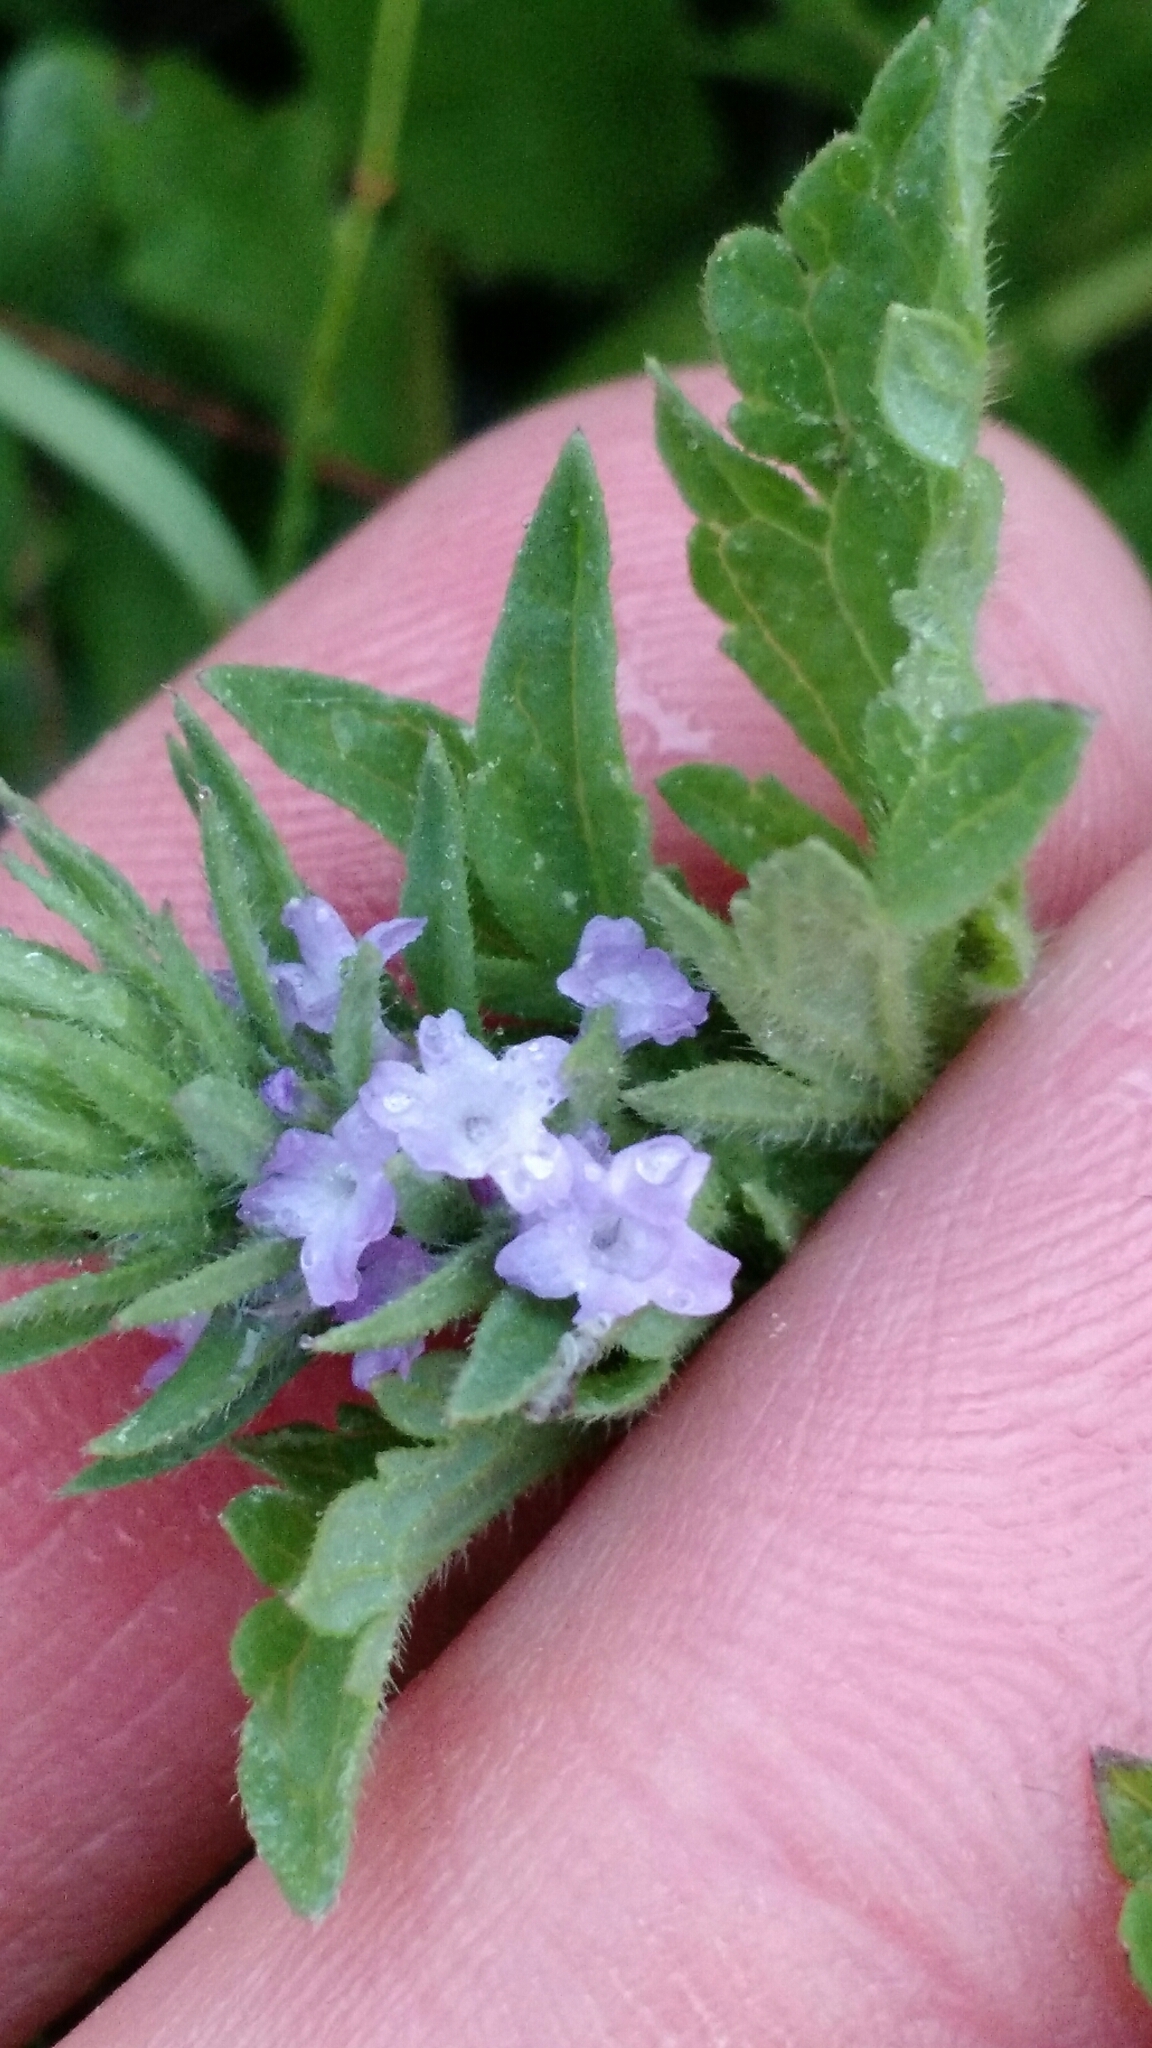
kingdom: Plantae
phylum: Tracheophyta
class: Magnoliopsida
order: Lamiales
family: Verbenaceae
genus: Verbena
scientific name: Verbena bracteata
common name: Bracted vervain
